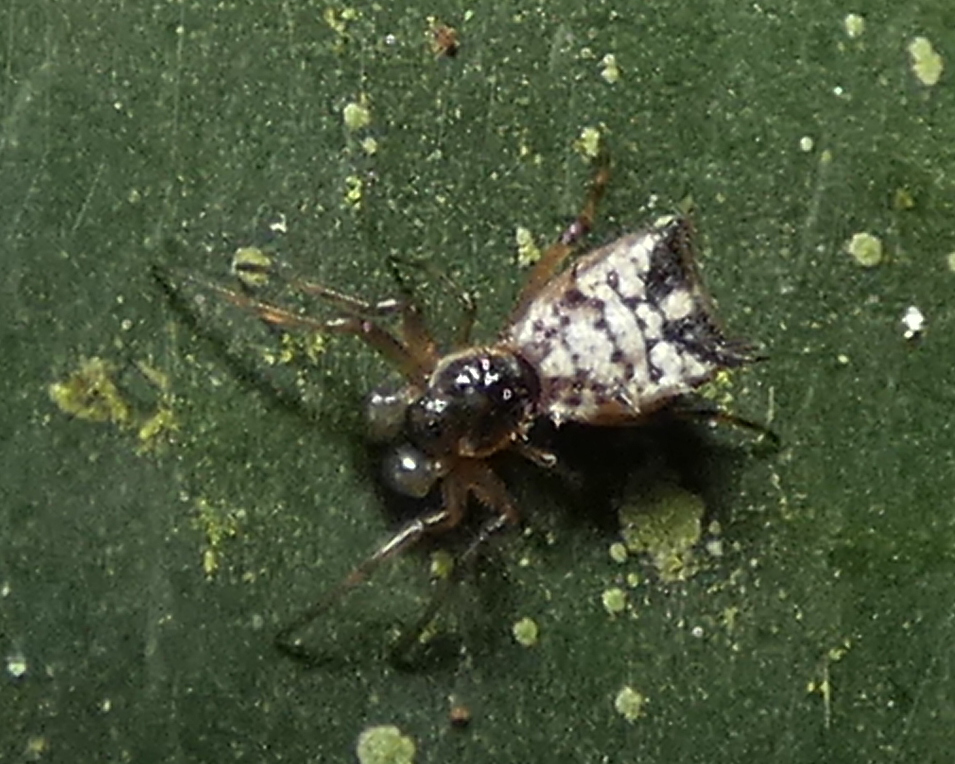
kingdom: Animalia
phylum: Arthropoda
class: Arachnida
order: Araneae
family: Araneidae
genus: Micrathena
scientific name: Micrathena picta
